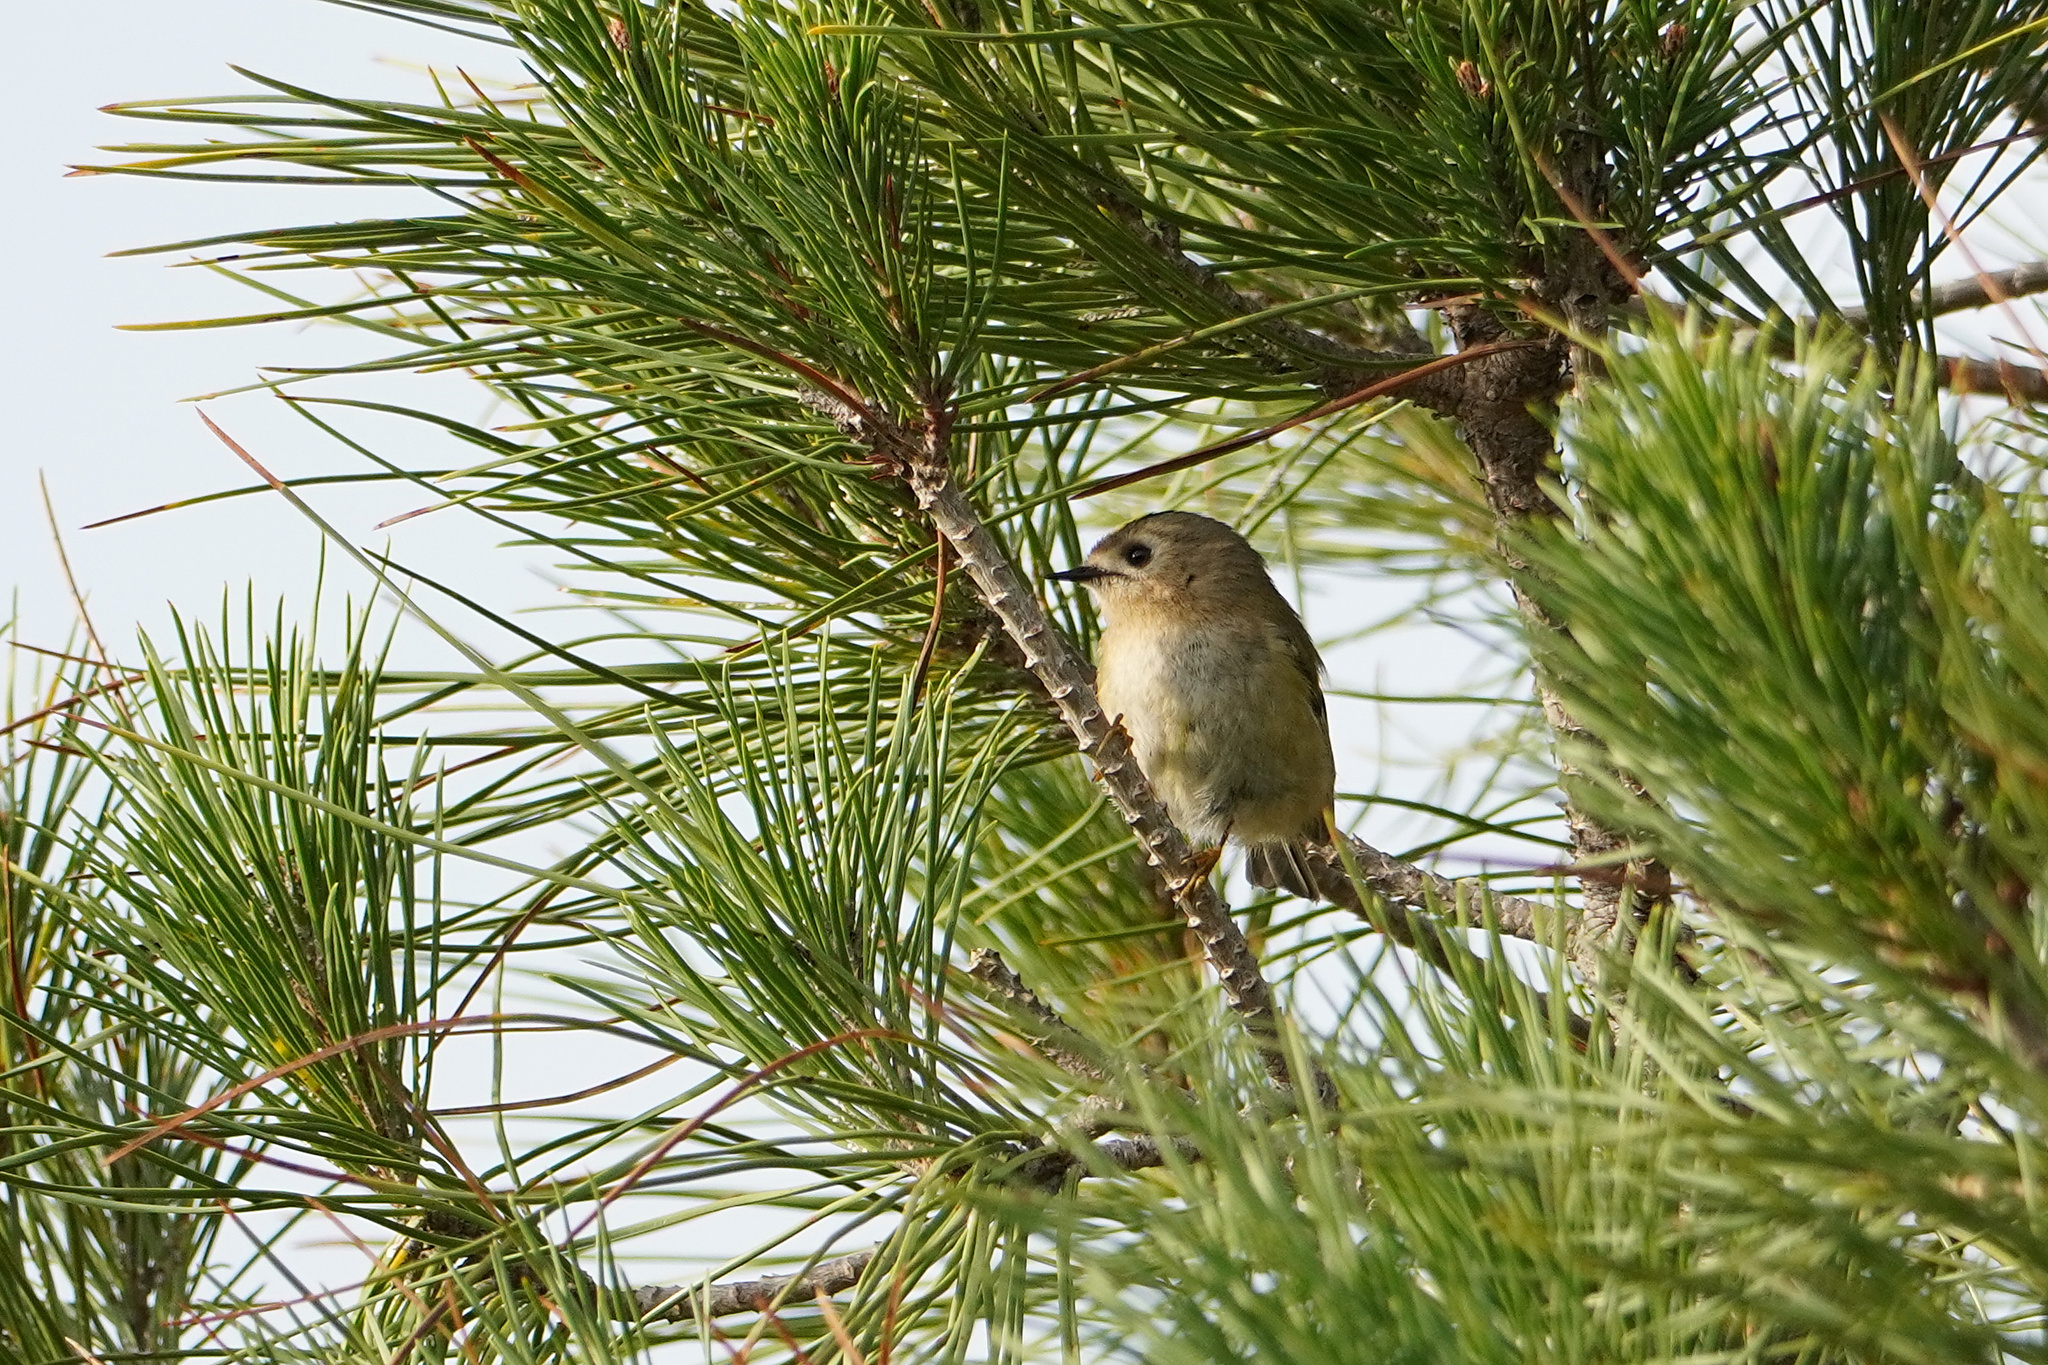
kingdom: Animalia
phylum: Chordata
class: Aves
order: Passeriformes
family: Regulidae
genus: Regulus
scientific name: Regulus regulus
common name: Goldcrest
